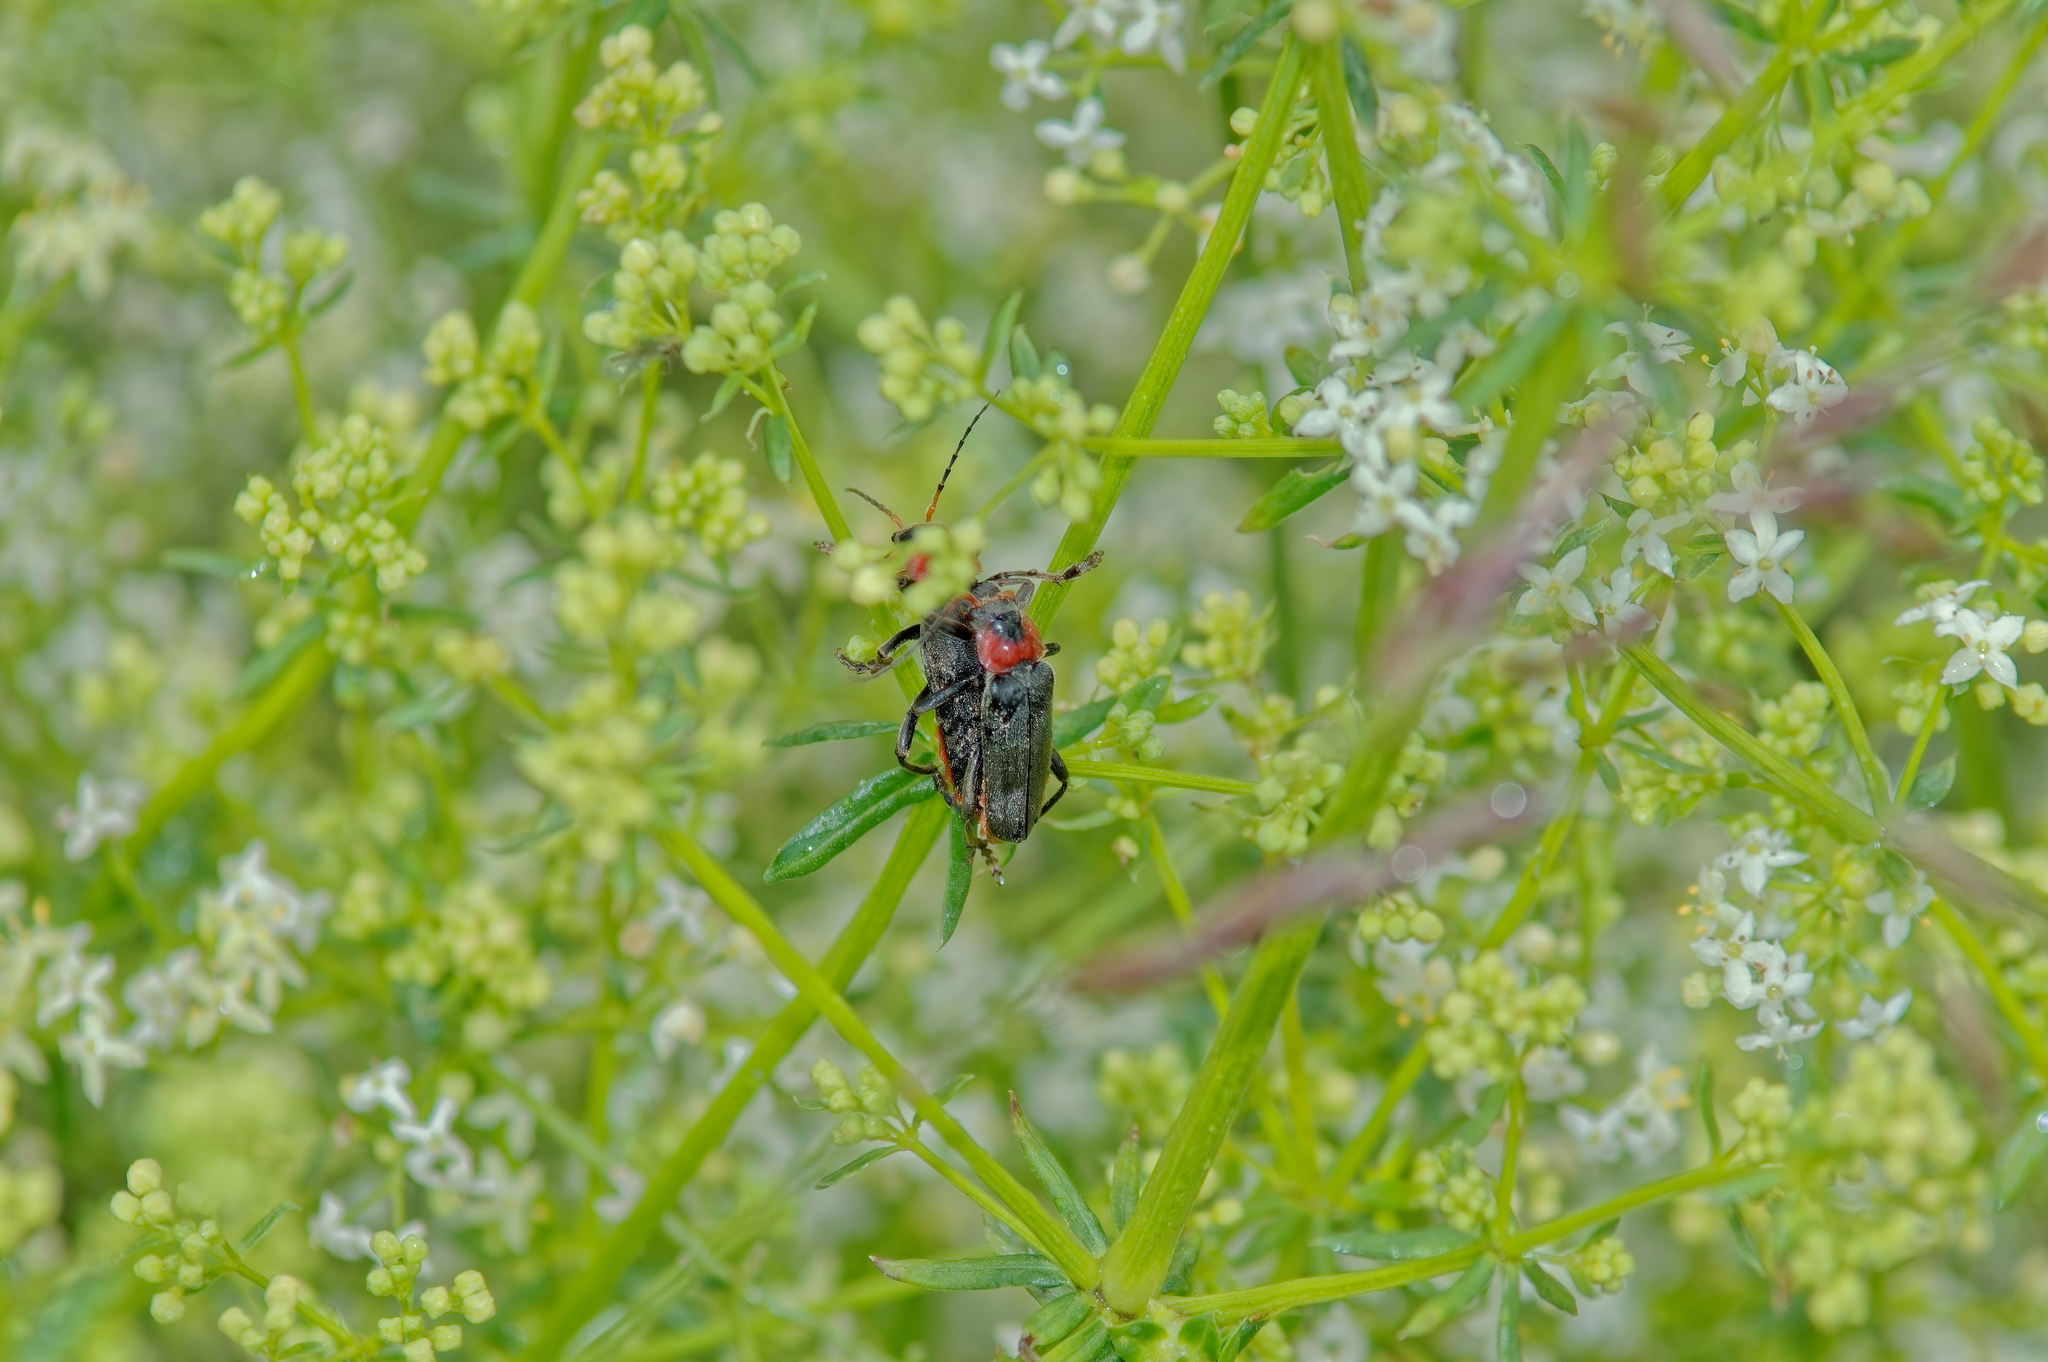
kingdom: Animalia
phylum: Arthropoda
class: Insecta
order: Coleoptera
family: Cantharidae
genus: Cantharis
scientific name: Cantharis fusca
